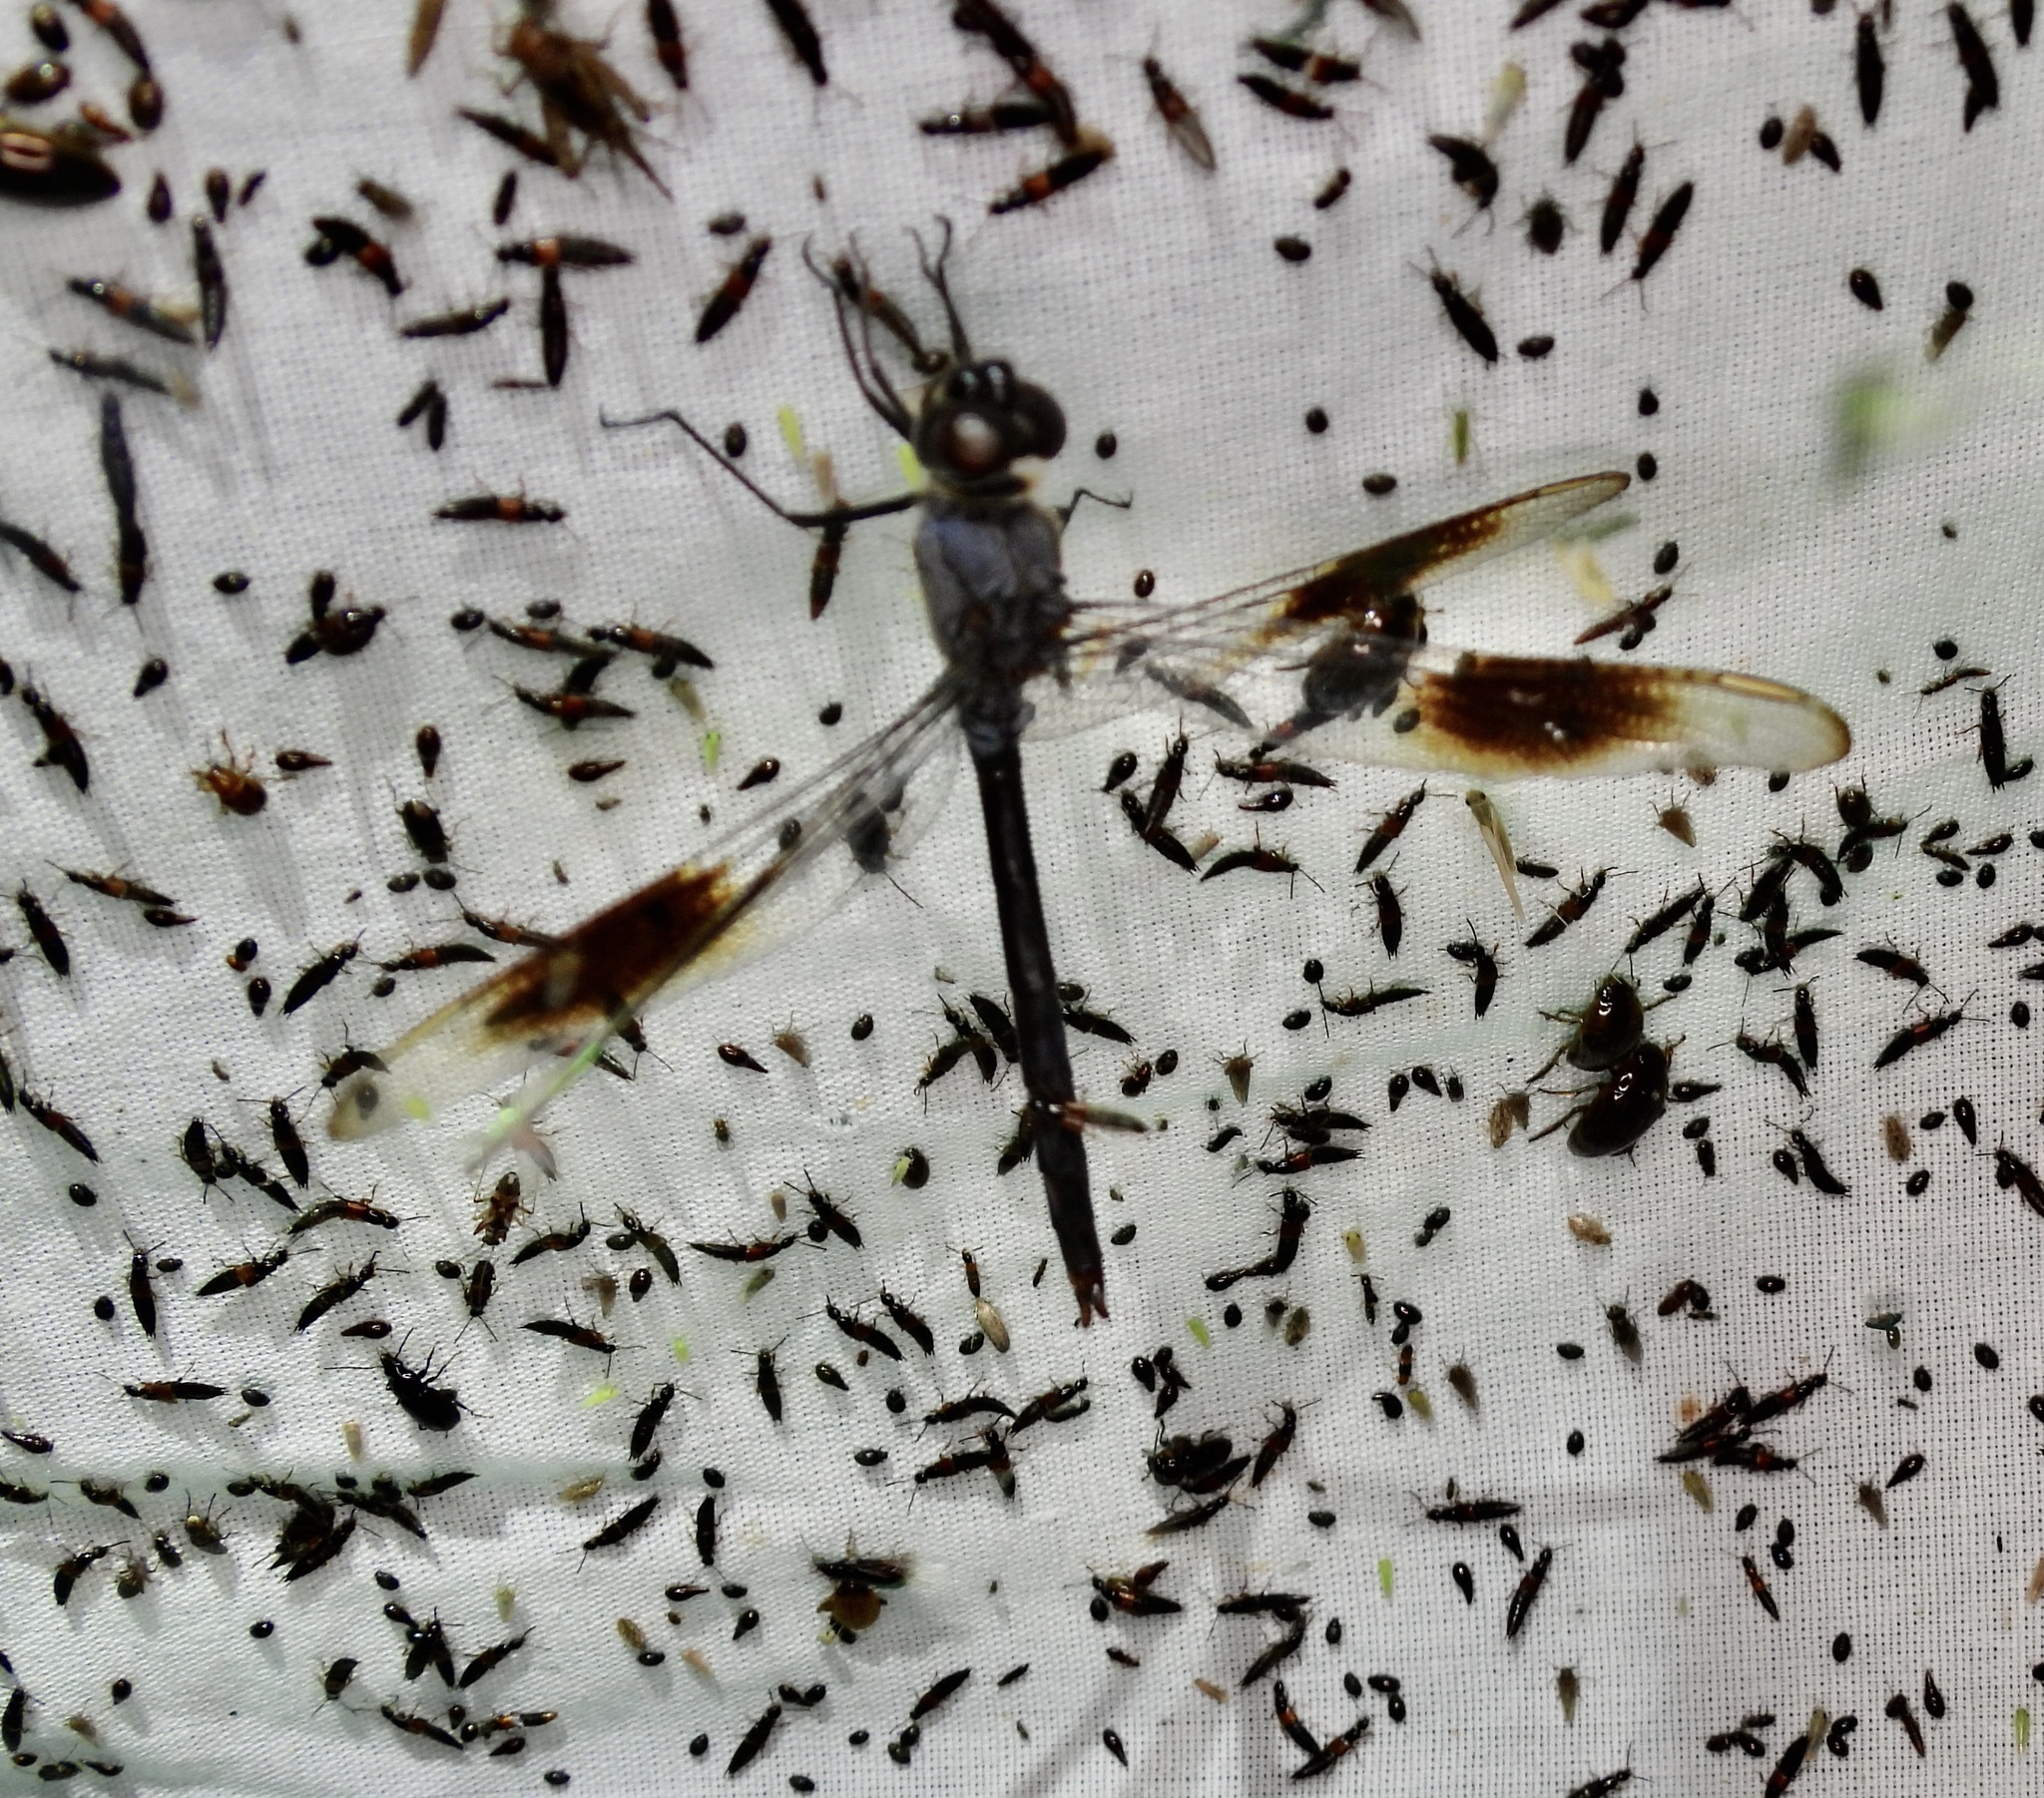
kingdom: Animalia
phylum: Arthropoda
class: Insecta
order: Odonata
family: Libellulidae
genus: Brachymesia
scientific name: Brachymesia gravida
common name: Four-spotted pennant
